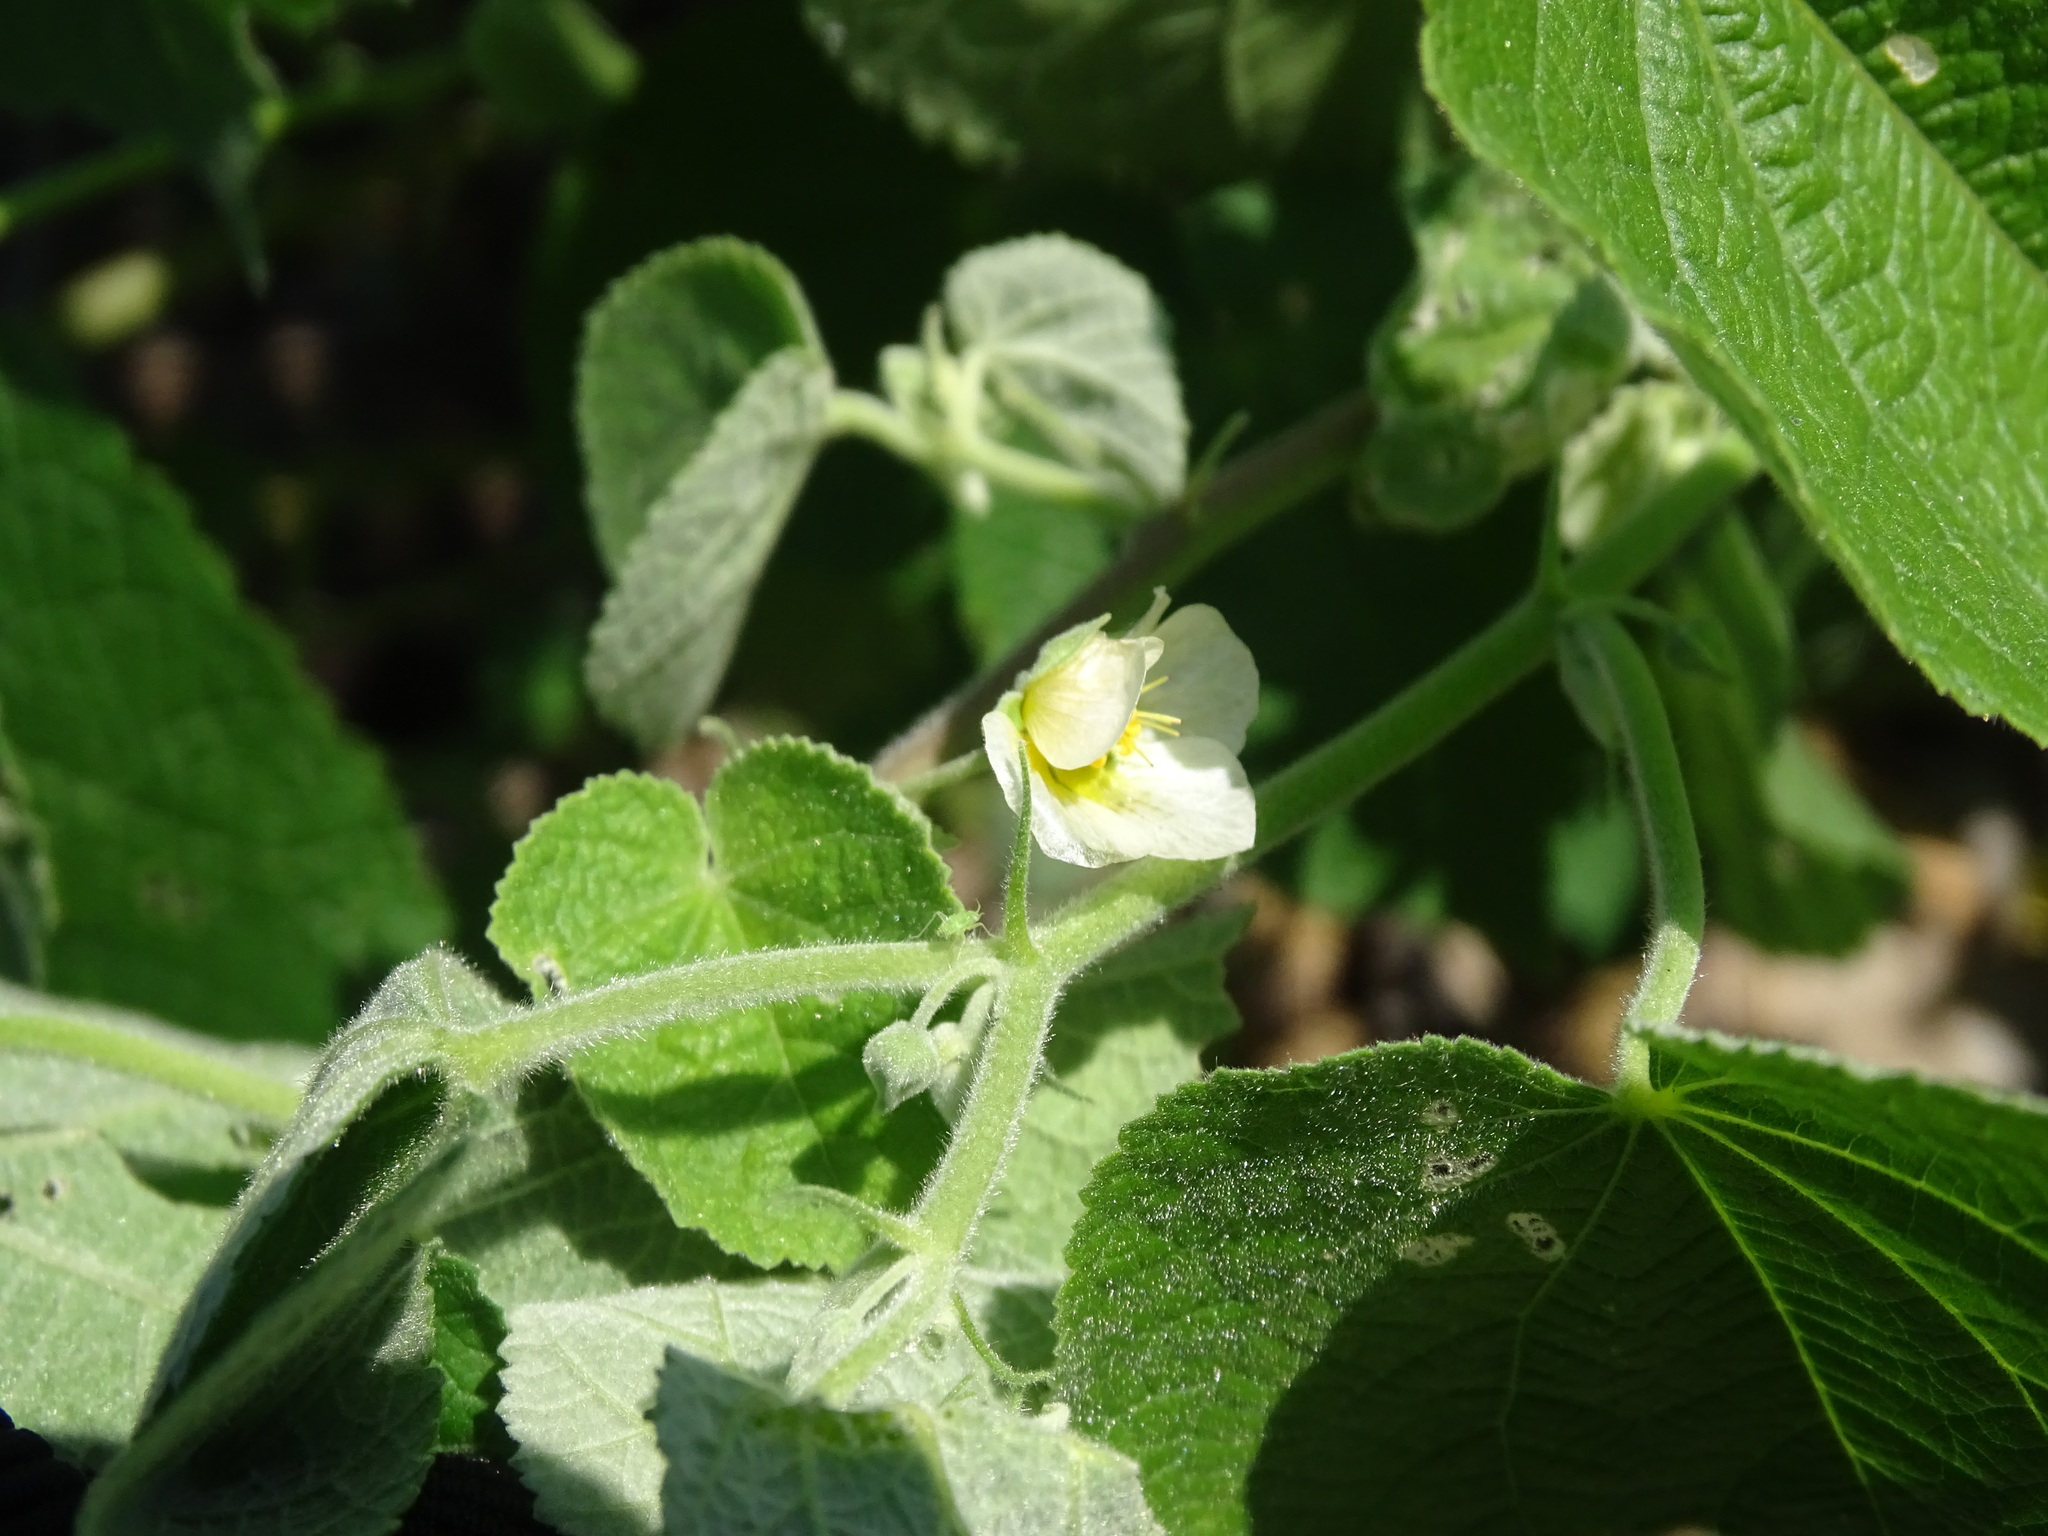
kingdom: Plantae
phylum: Tracheophyta
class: Magnoliopsida
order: Malvales
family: Malvaceae
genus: Herissantia
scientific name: Herissantia crispa
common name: Bladdermallow
